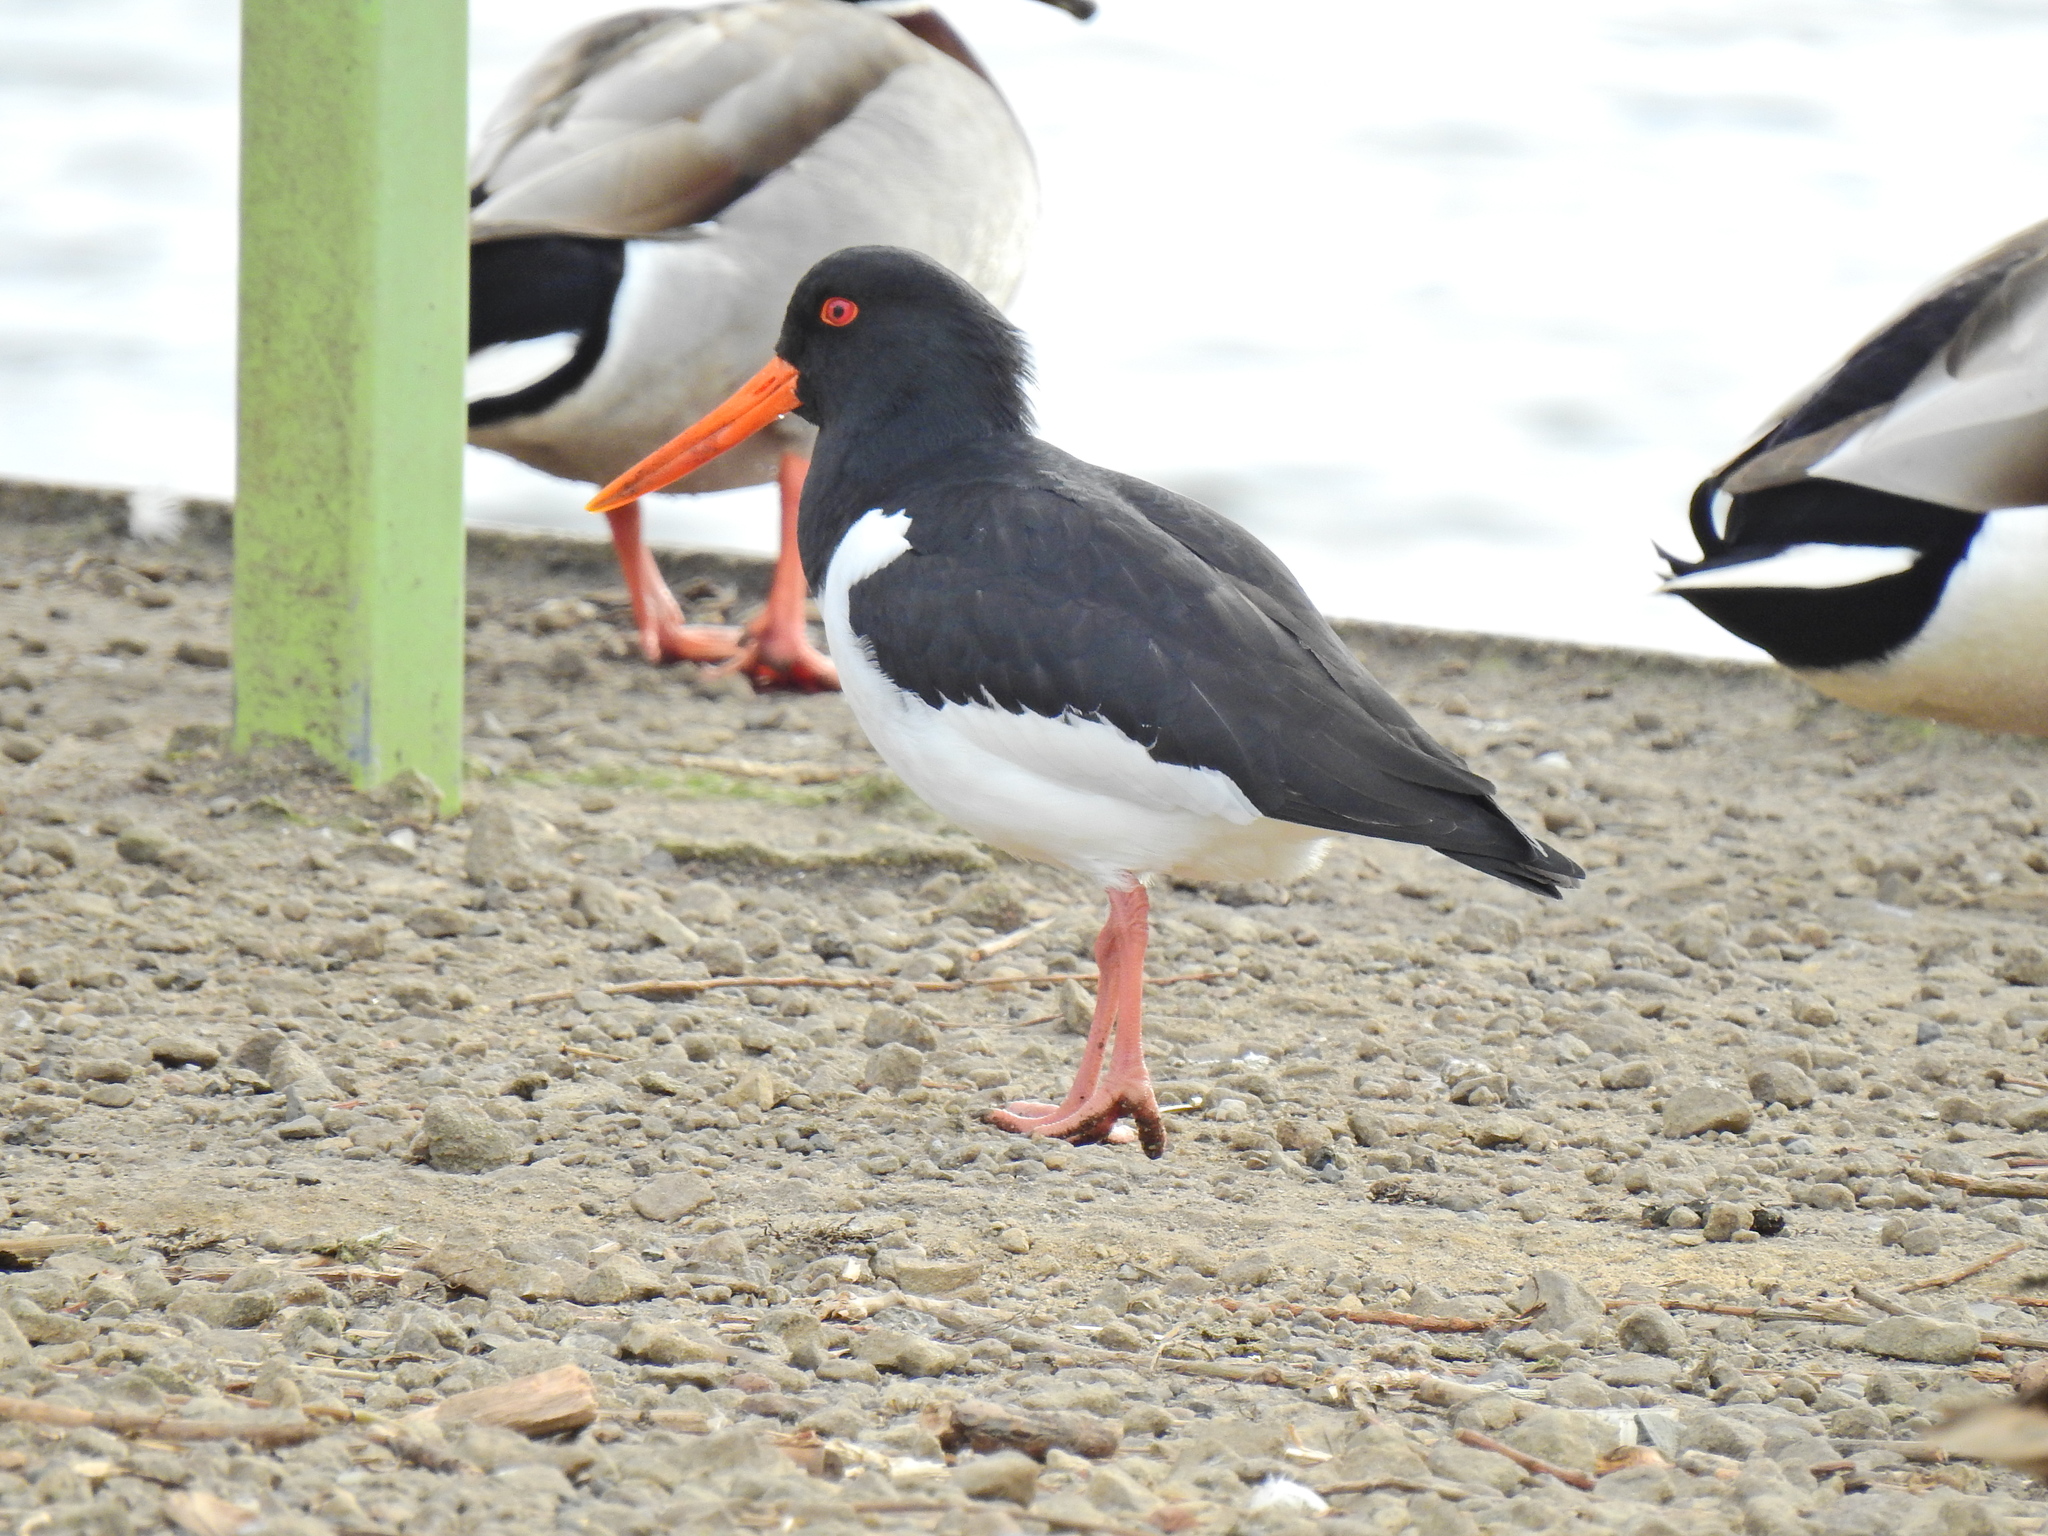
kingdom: Animalia
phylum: Chordata
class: Aves
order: Charadriiformes
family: Haematopodidae
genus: Haematopus
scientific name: Haematopus ostralegus
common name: Eurasian oystercatcher
